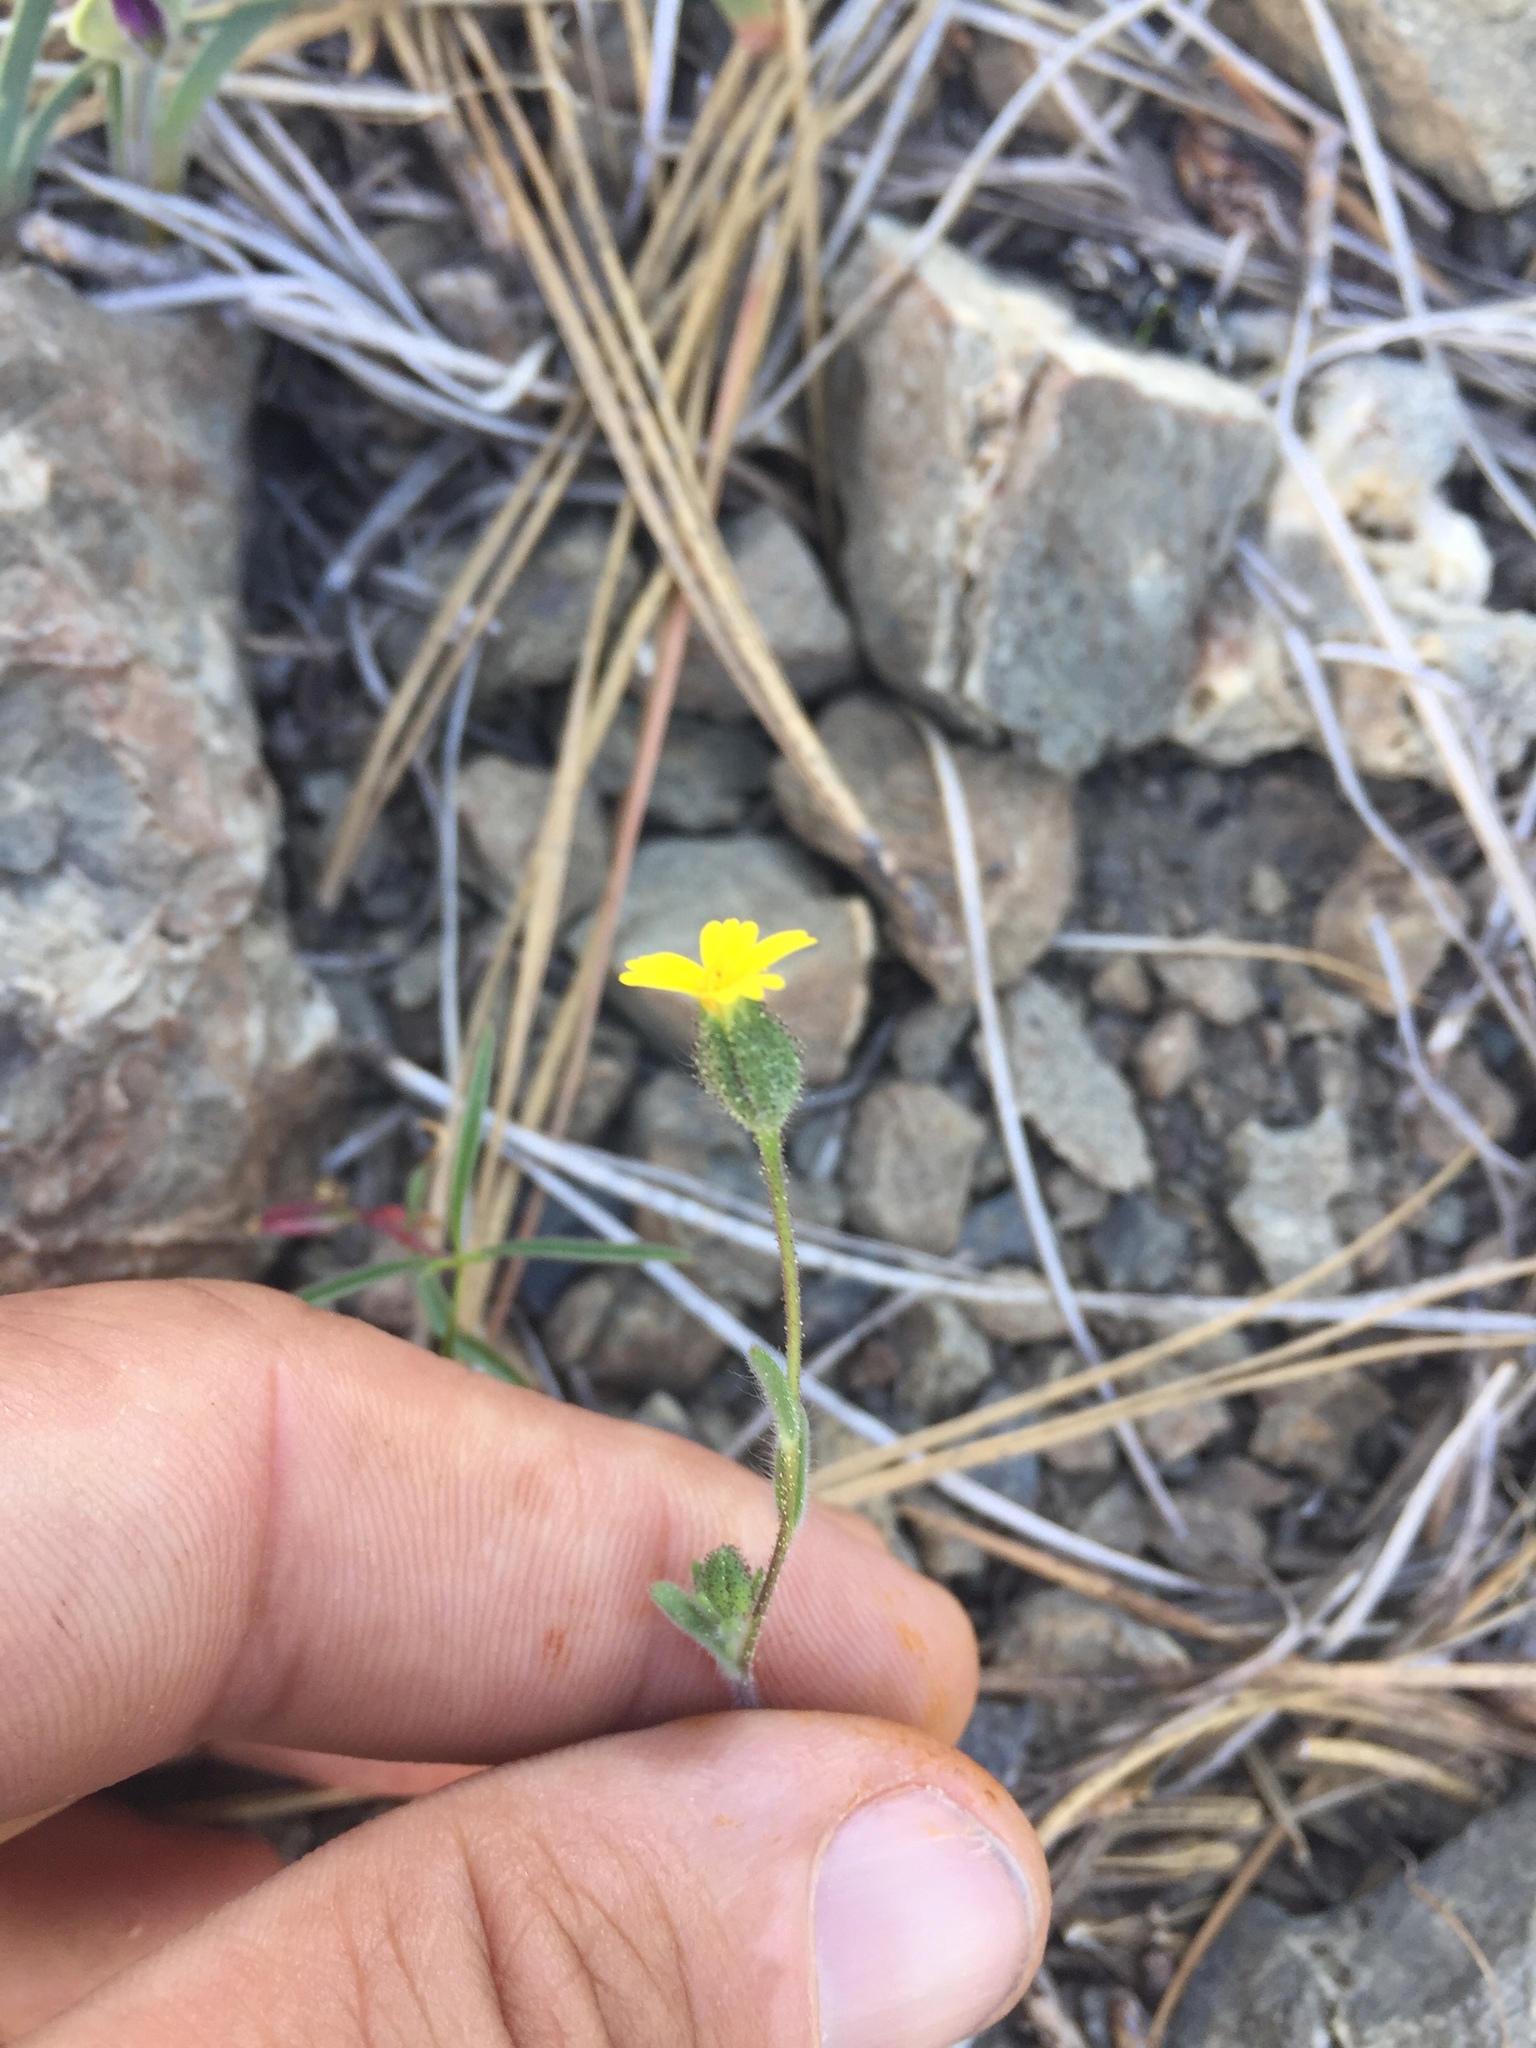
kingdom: Plantae
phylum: Tracheophyta
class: Magnoliopsida
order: Asterales
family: Asteraceae
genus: Madia
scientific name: Madia gracilis
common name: Grassy tarweed
